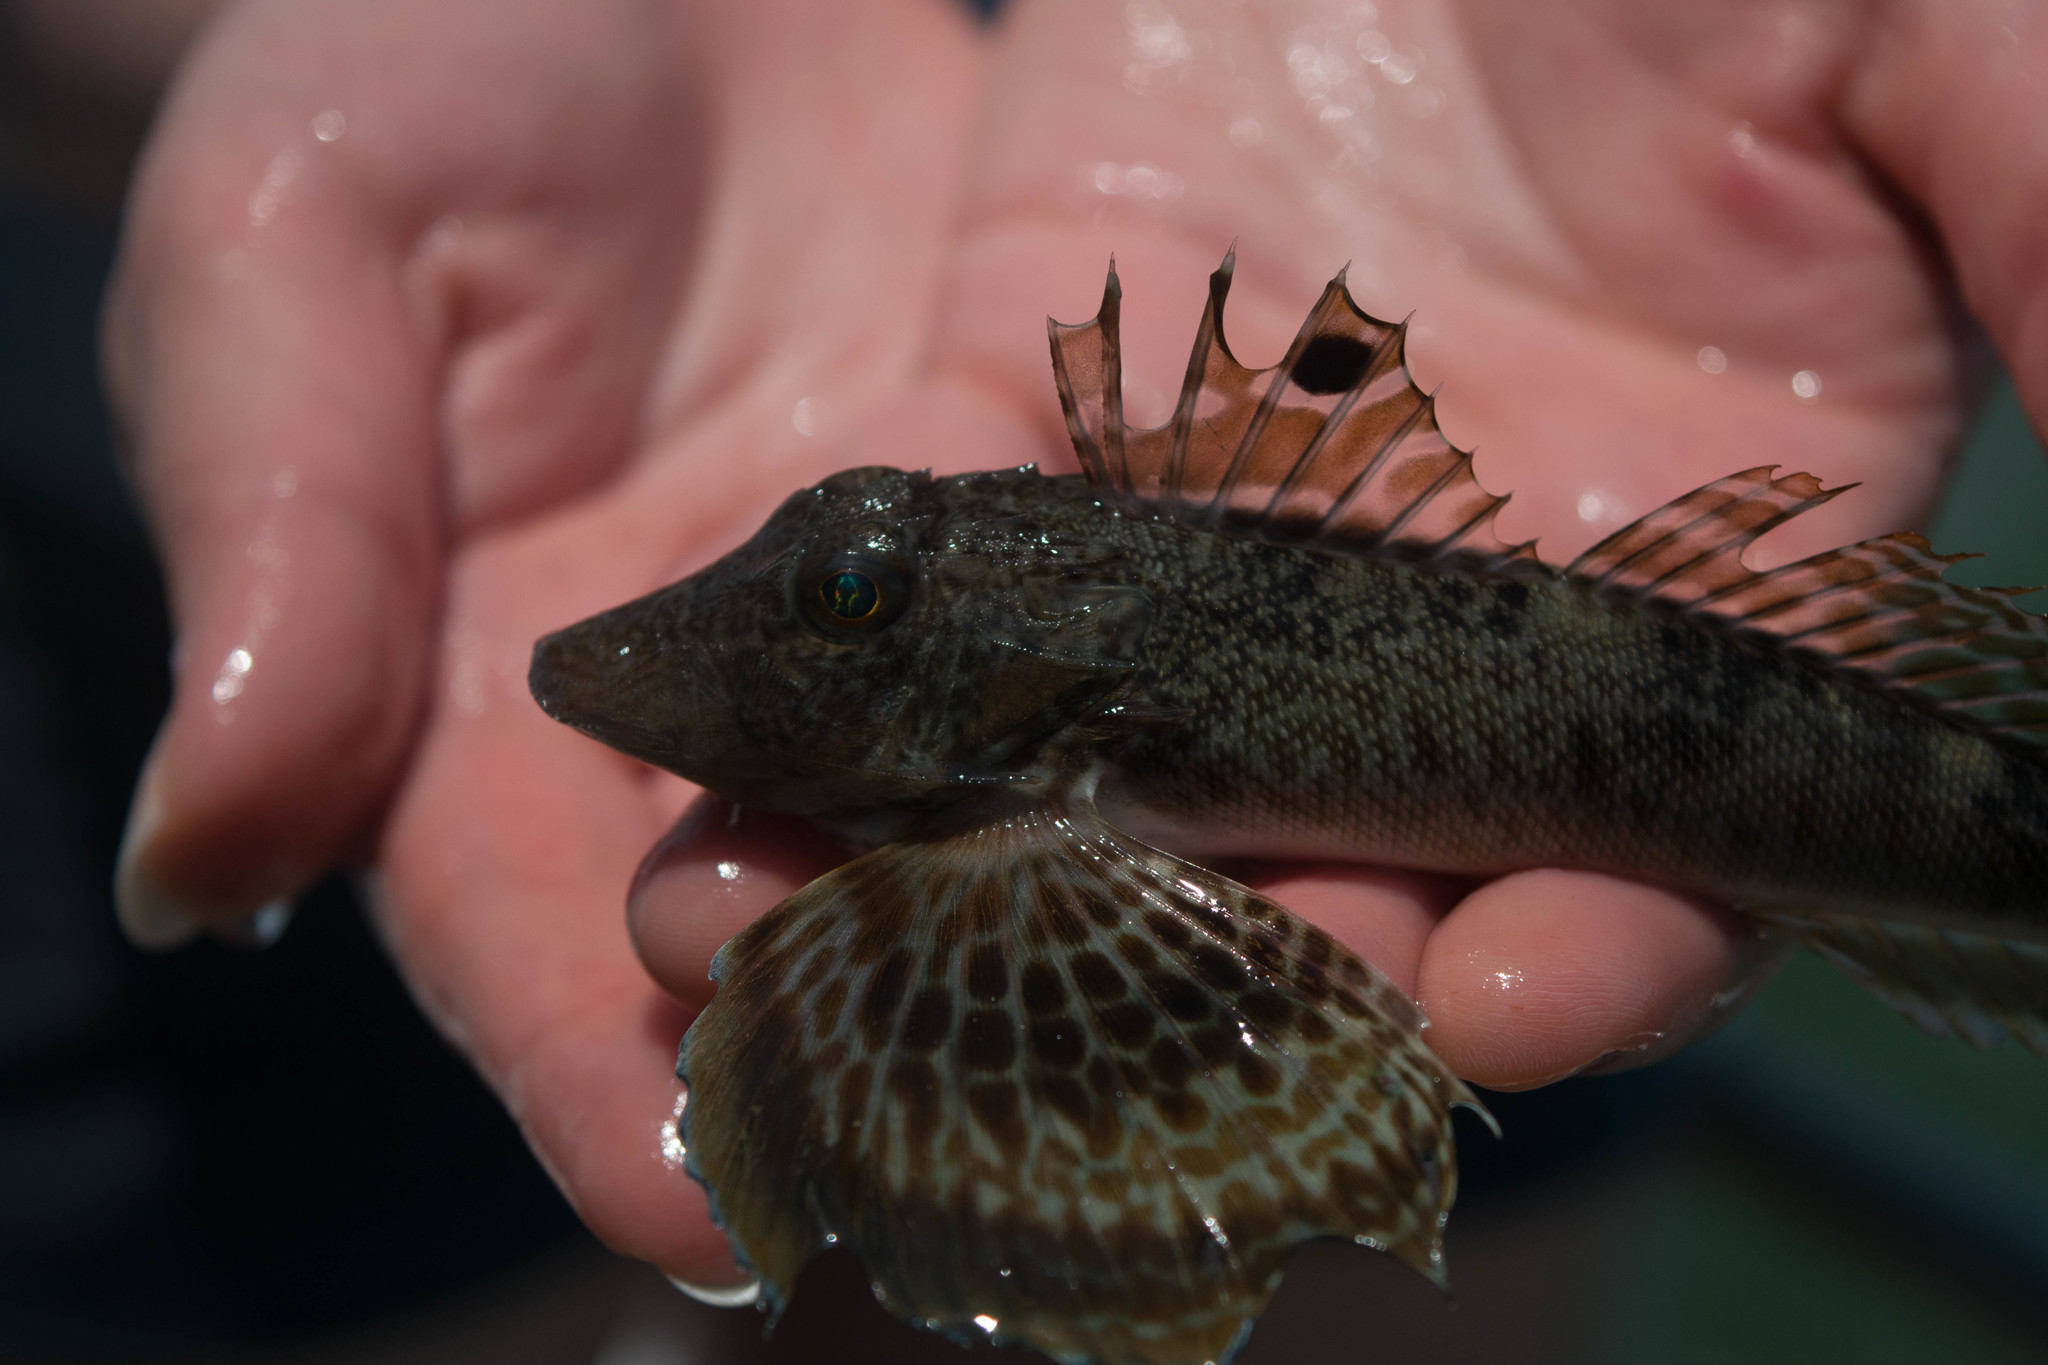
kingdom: Animalia
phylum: Chordata
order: Scorpaeniformes
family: Triglidae
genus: Prionotus
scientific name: Prionotus carolinus
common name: Northern searobin
